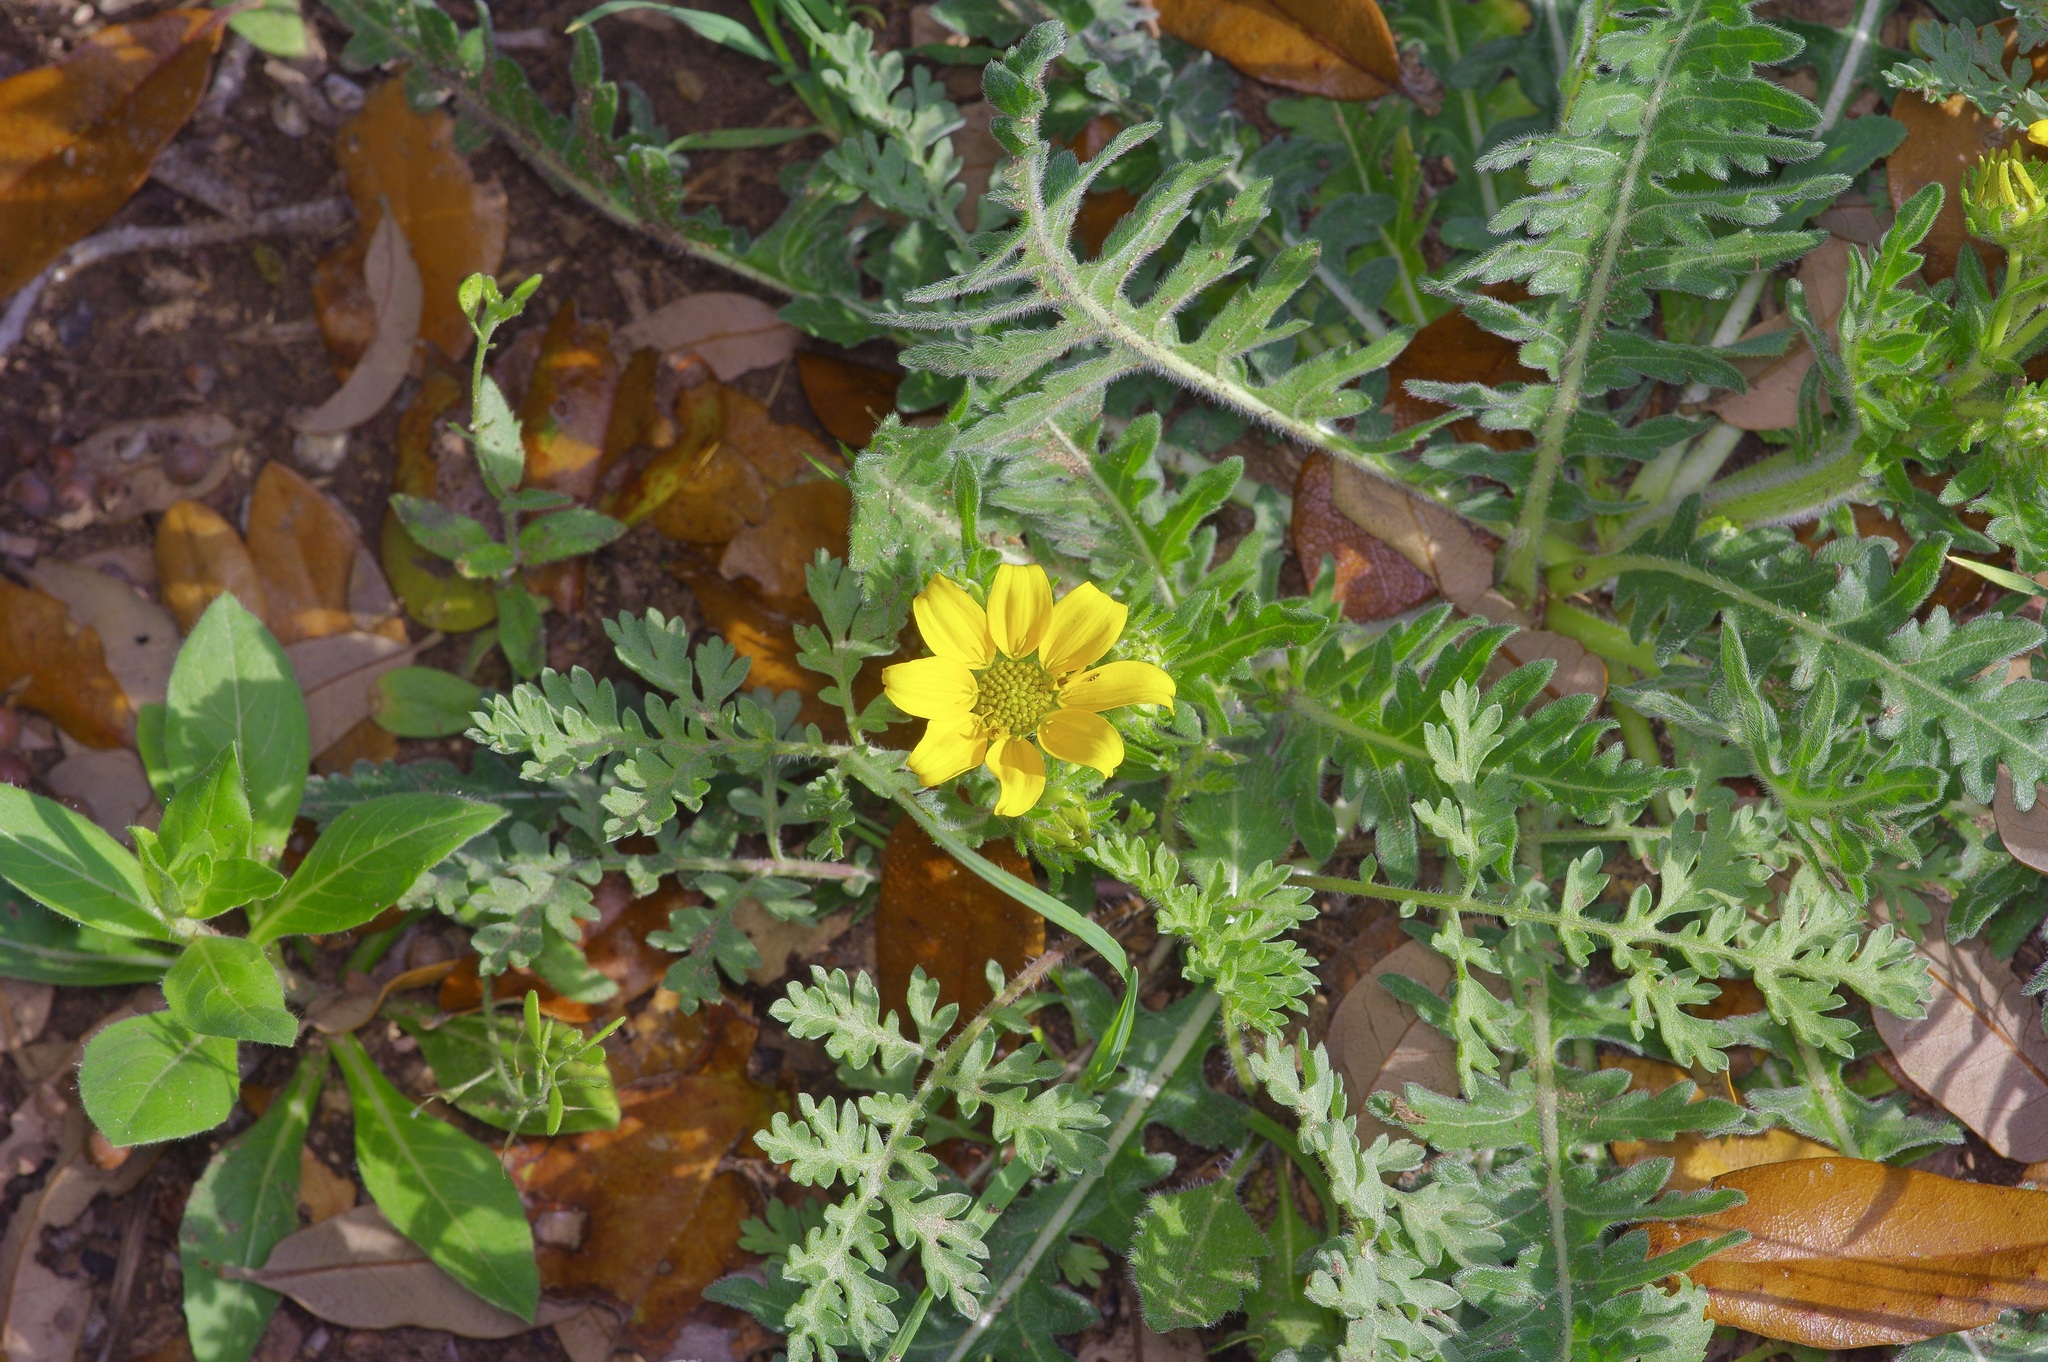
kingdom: Plantae
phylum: Tracheophyta
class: Magnoliopsida
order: Asterales
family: Asteraceae
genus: Engelmannia
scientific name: Engelmannia peristenia
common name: Engelmann's daisy
